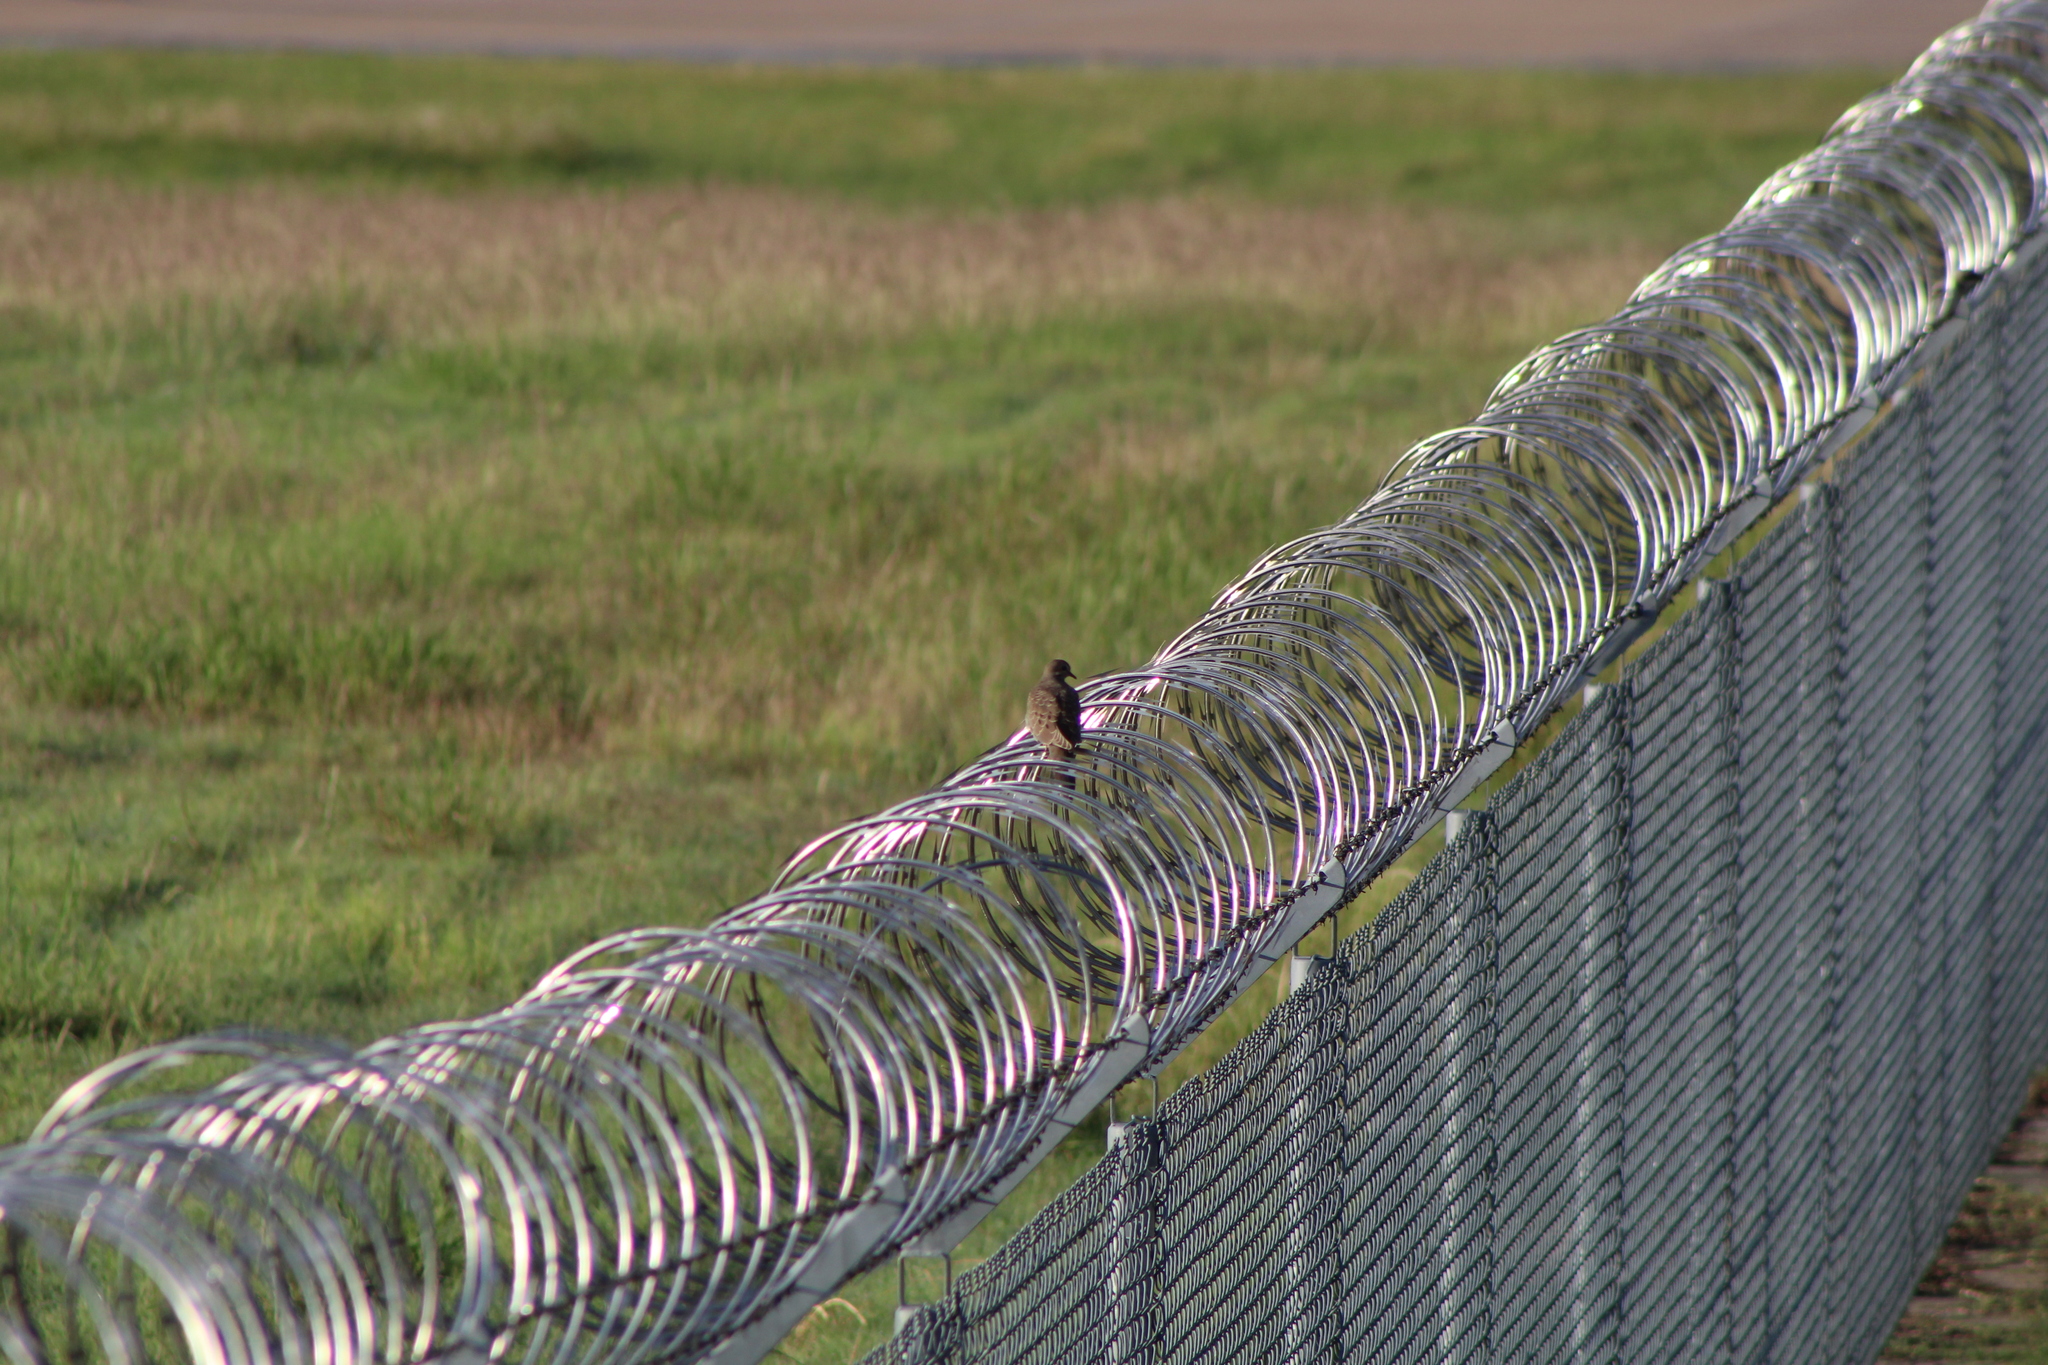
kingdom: Animalia
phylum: Chordata
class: Aves
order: Columbiformes
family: Columbidae
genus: Zenaida
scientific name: Zenaida macroura
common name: Mourning dove
